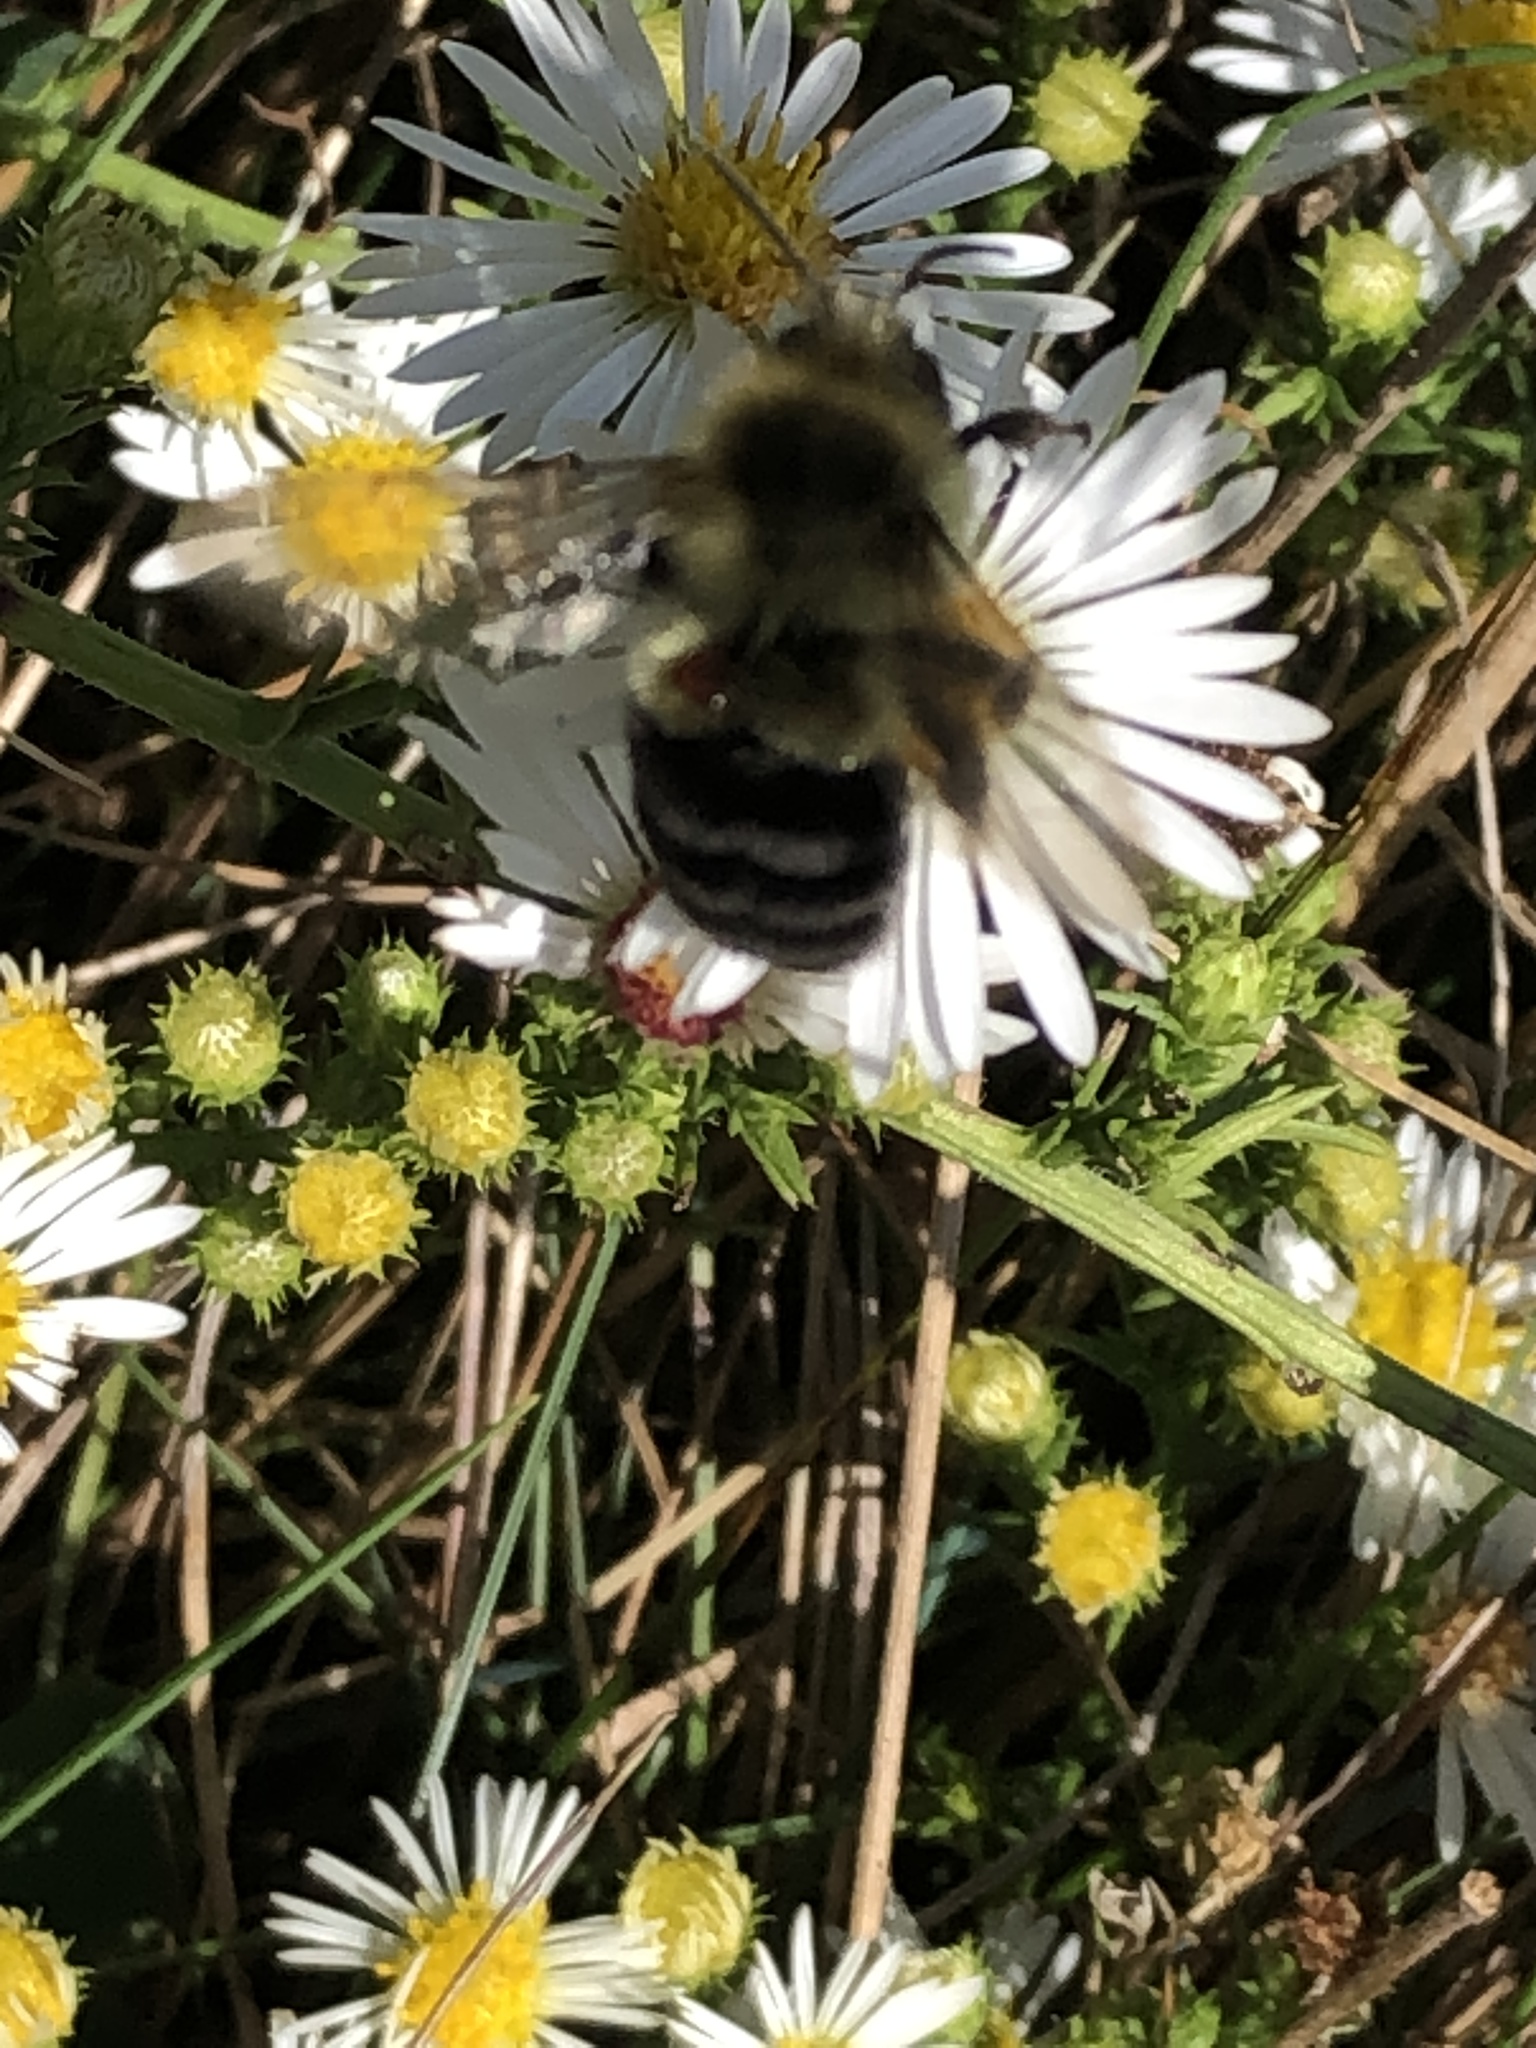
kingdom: Animalia
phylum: Arthropoda
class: Insecta
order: Hymenoptera
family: Apidae
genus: Bombus
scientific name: Bombus impatiens
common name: Common eastern bumble bee
